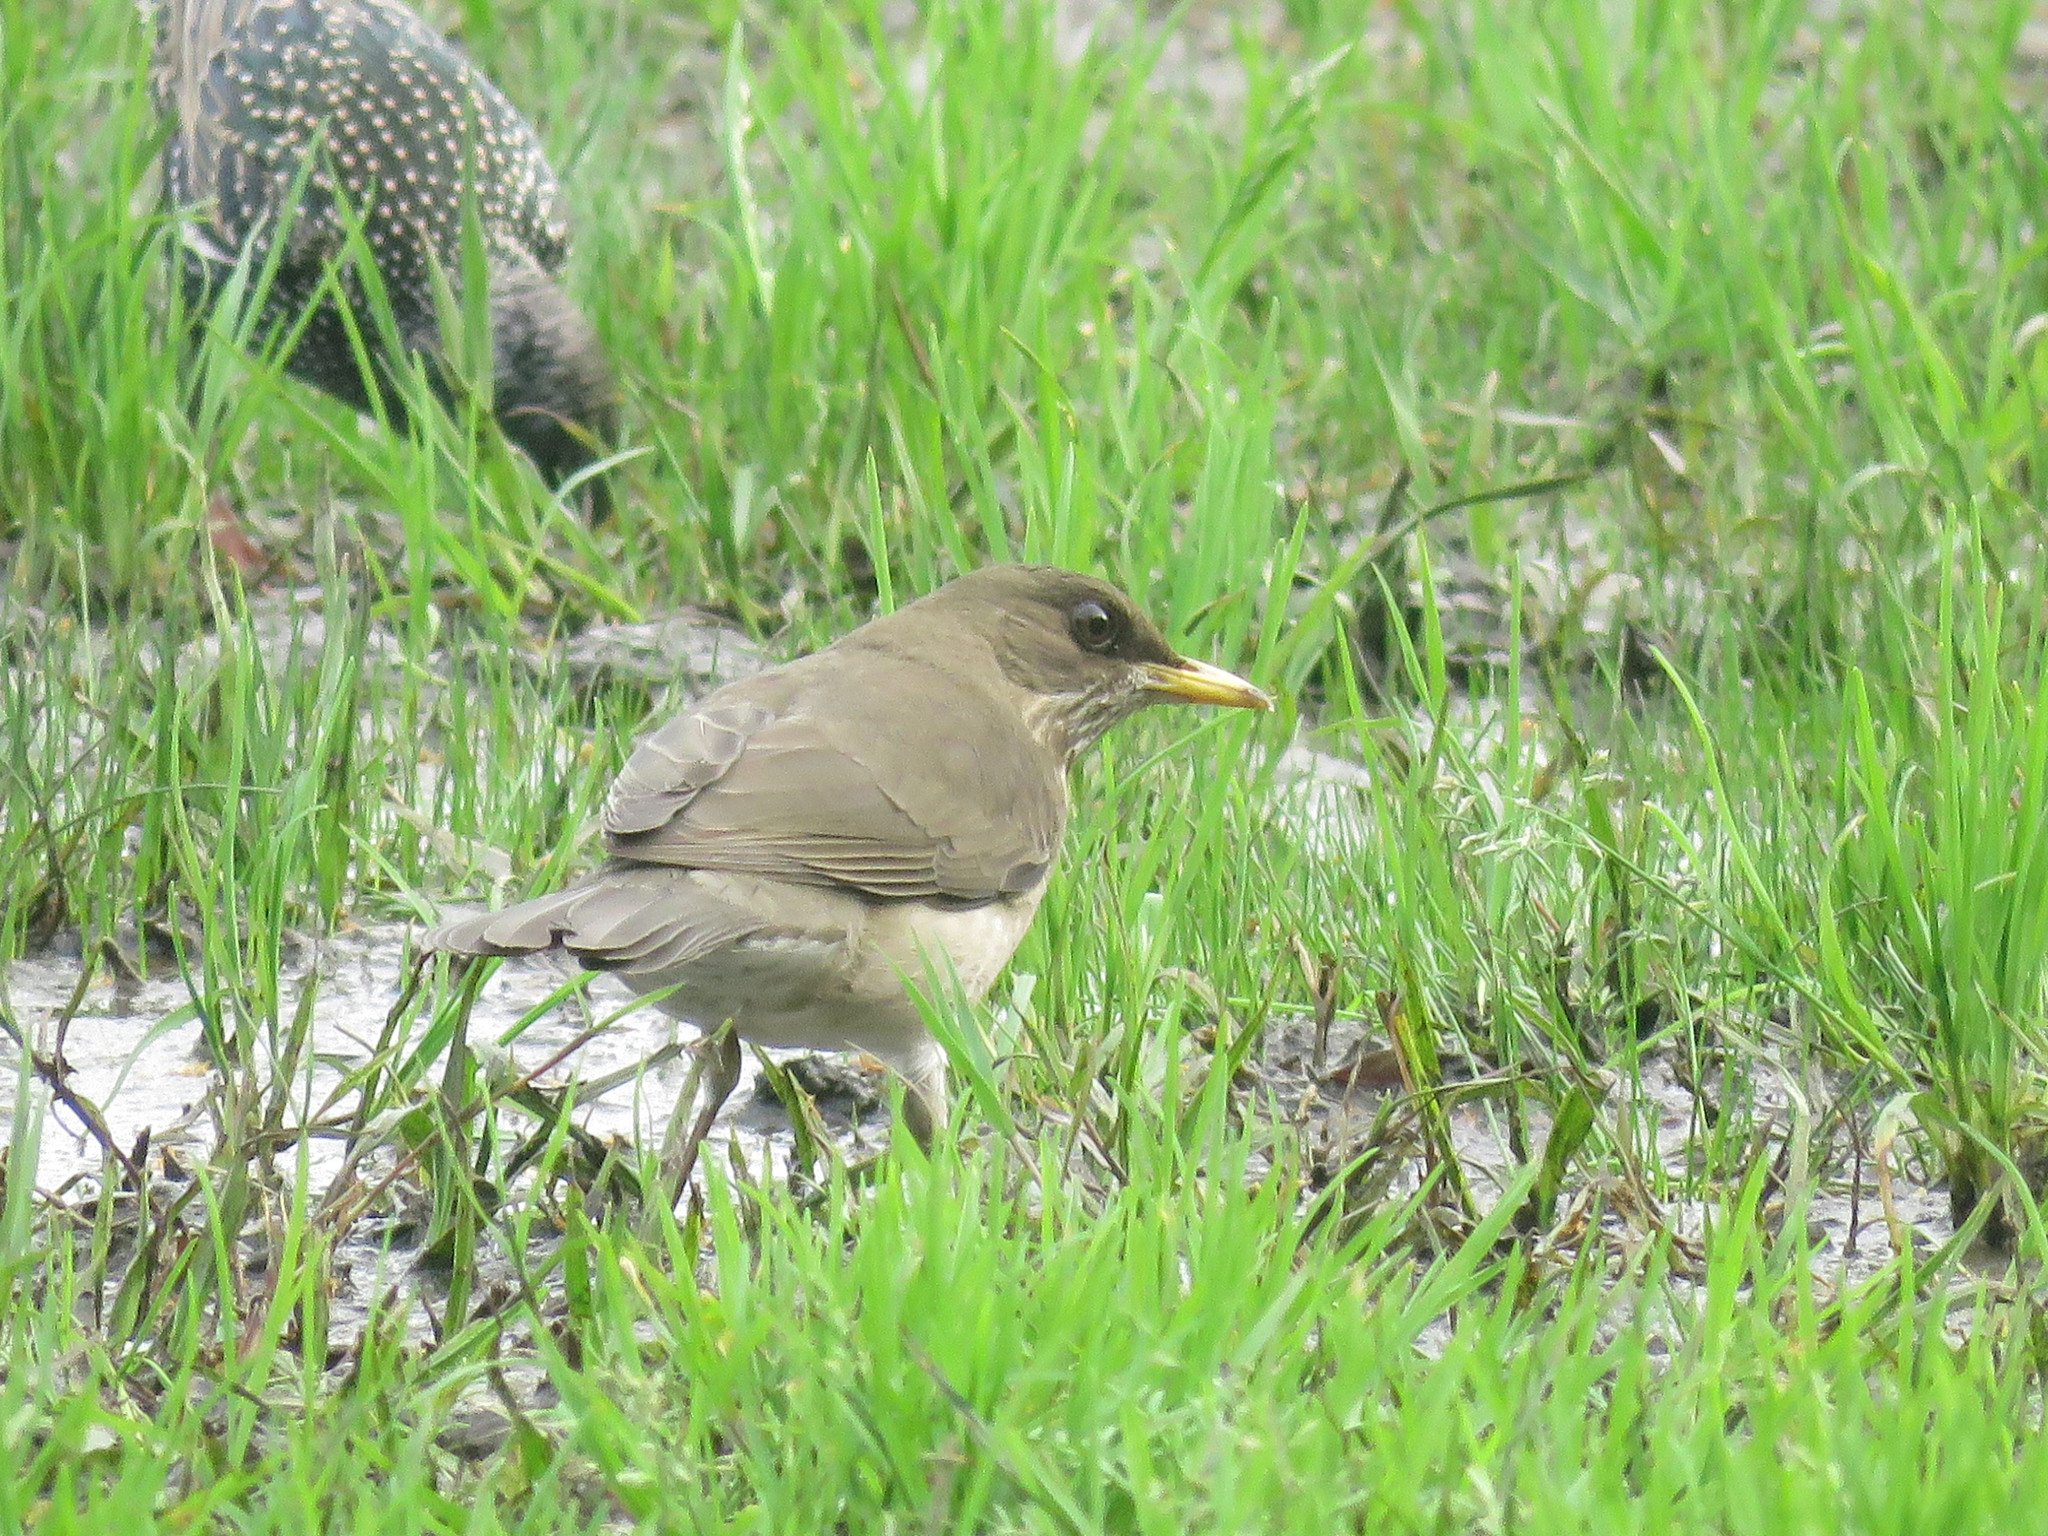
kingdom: Animalia
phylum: Chordata
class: Aves
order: Passeriformes
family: Turdidae
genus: Turdus
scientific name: Turdus amaurochalinus
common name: Creamy-bellied thrush
